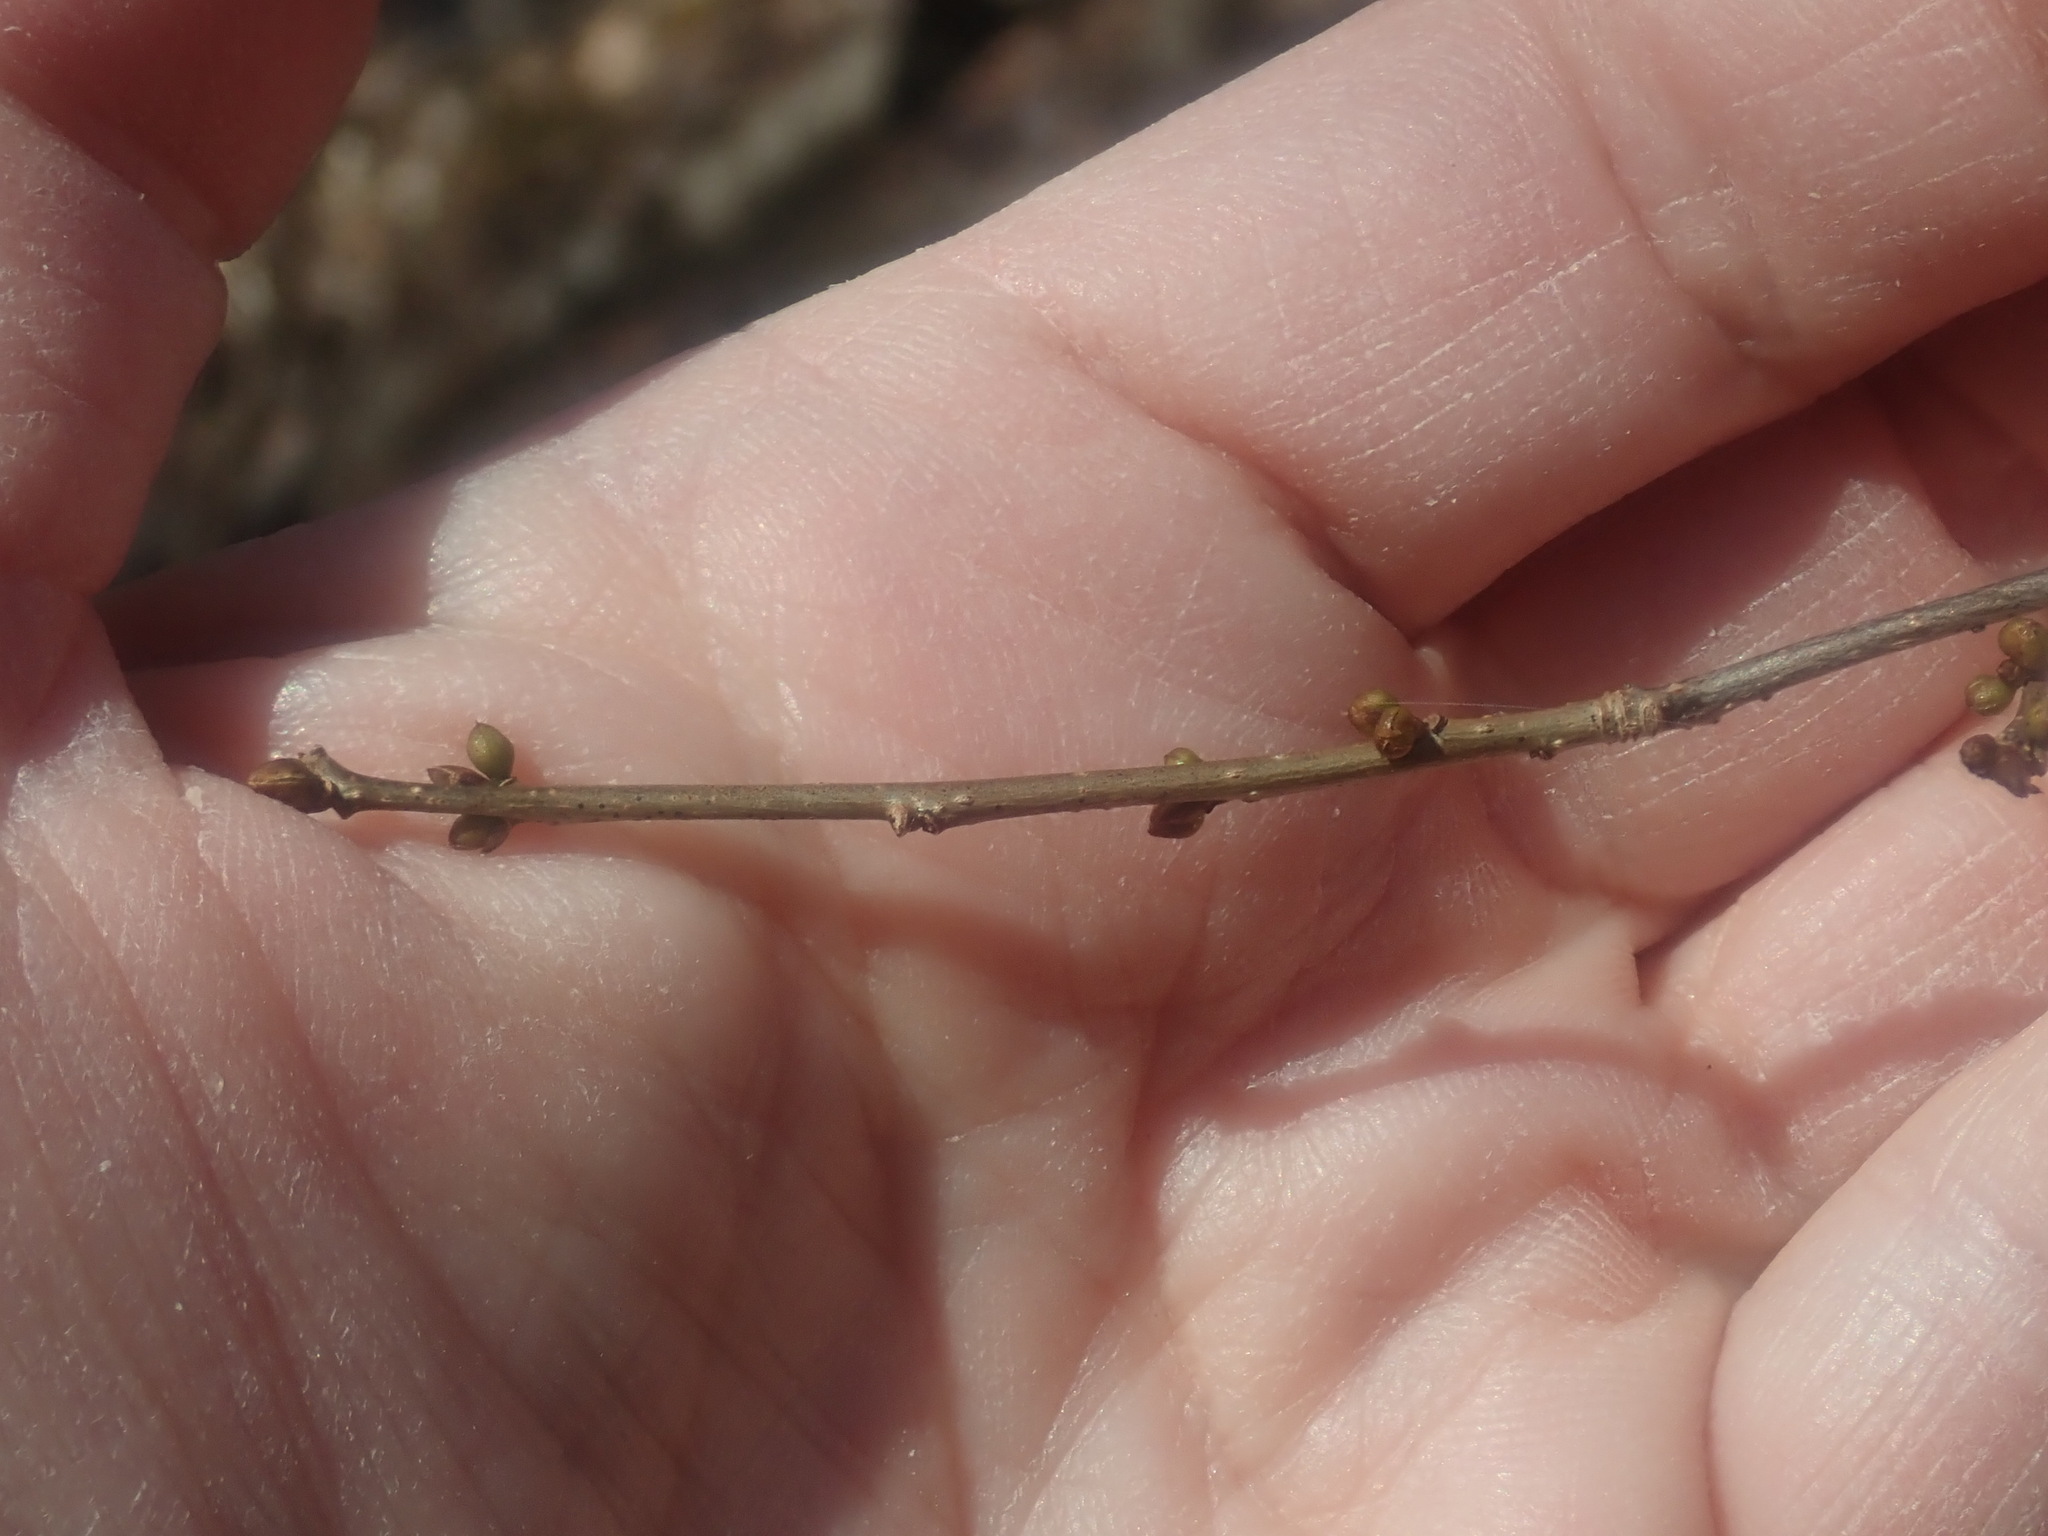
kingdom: Plantae
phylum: Tracheophyta
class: Magnoliopsida
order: Laurales
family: Lauraceae
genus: Lindera
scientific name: Lindera benzoin
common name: Spicebush
